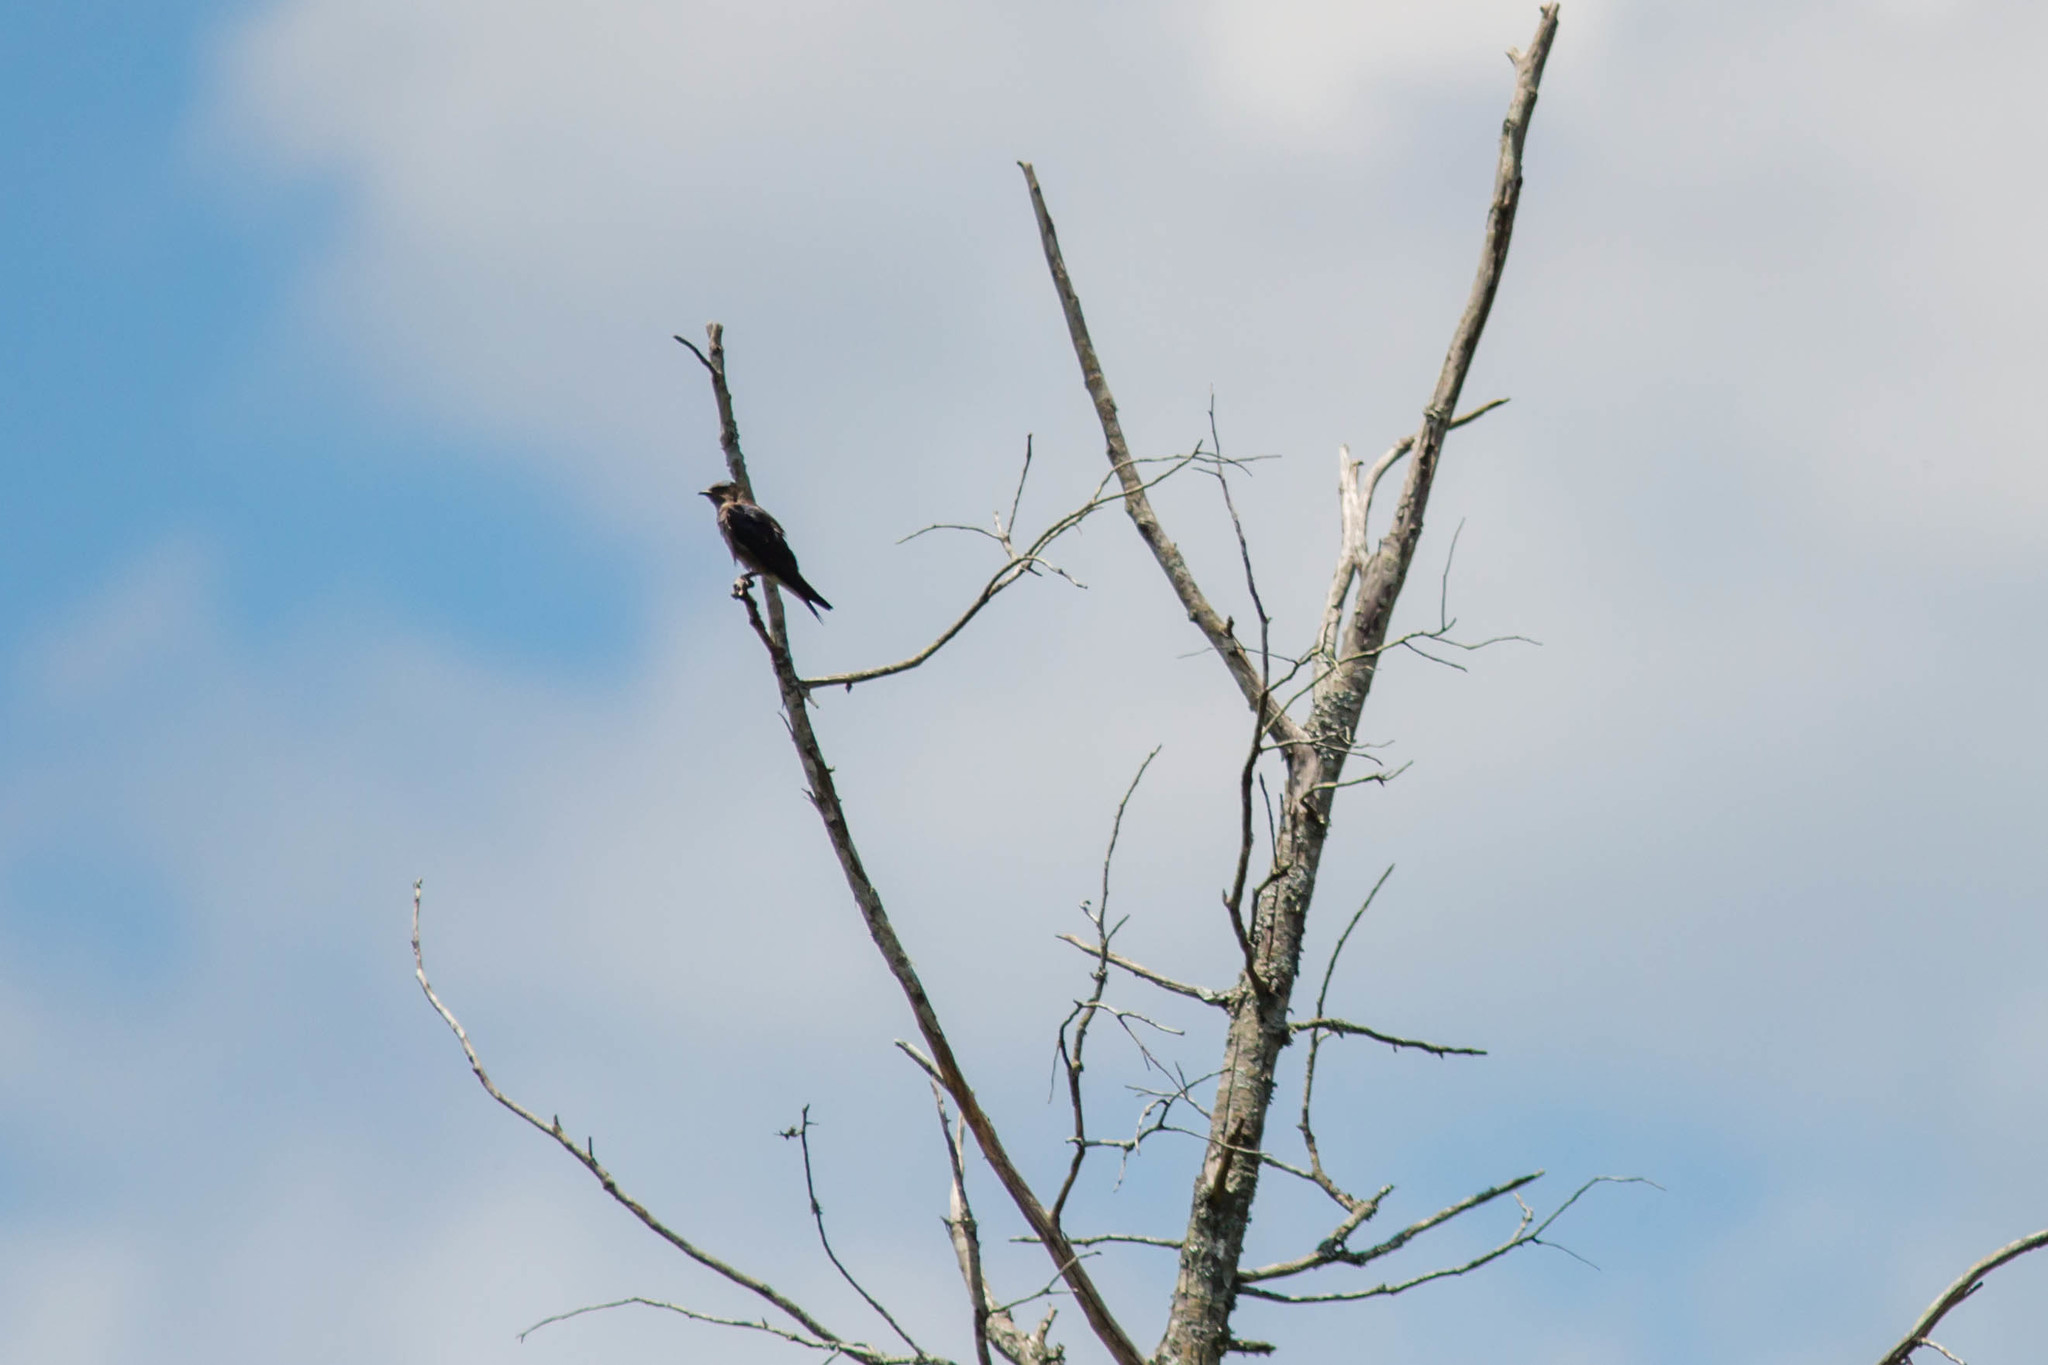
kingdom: Animalia
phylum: Chordata
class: Aves
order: Passeriformes
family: Hirundinidae
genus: Progne
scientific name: Progne subis
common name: Purple martin
